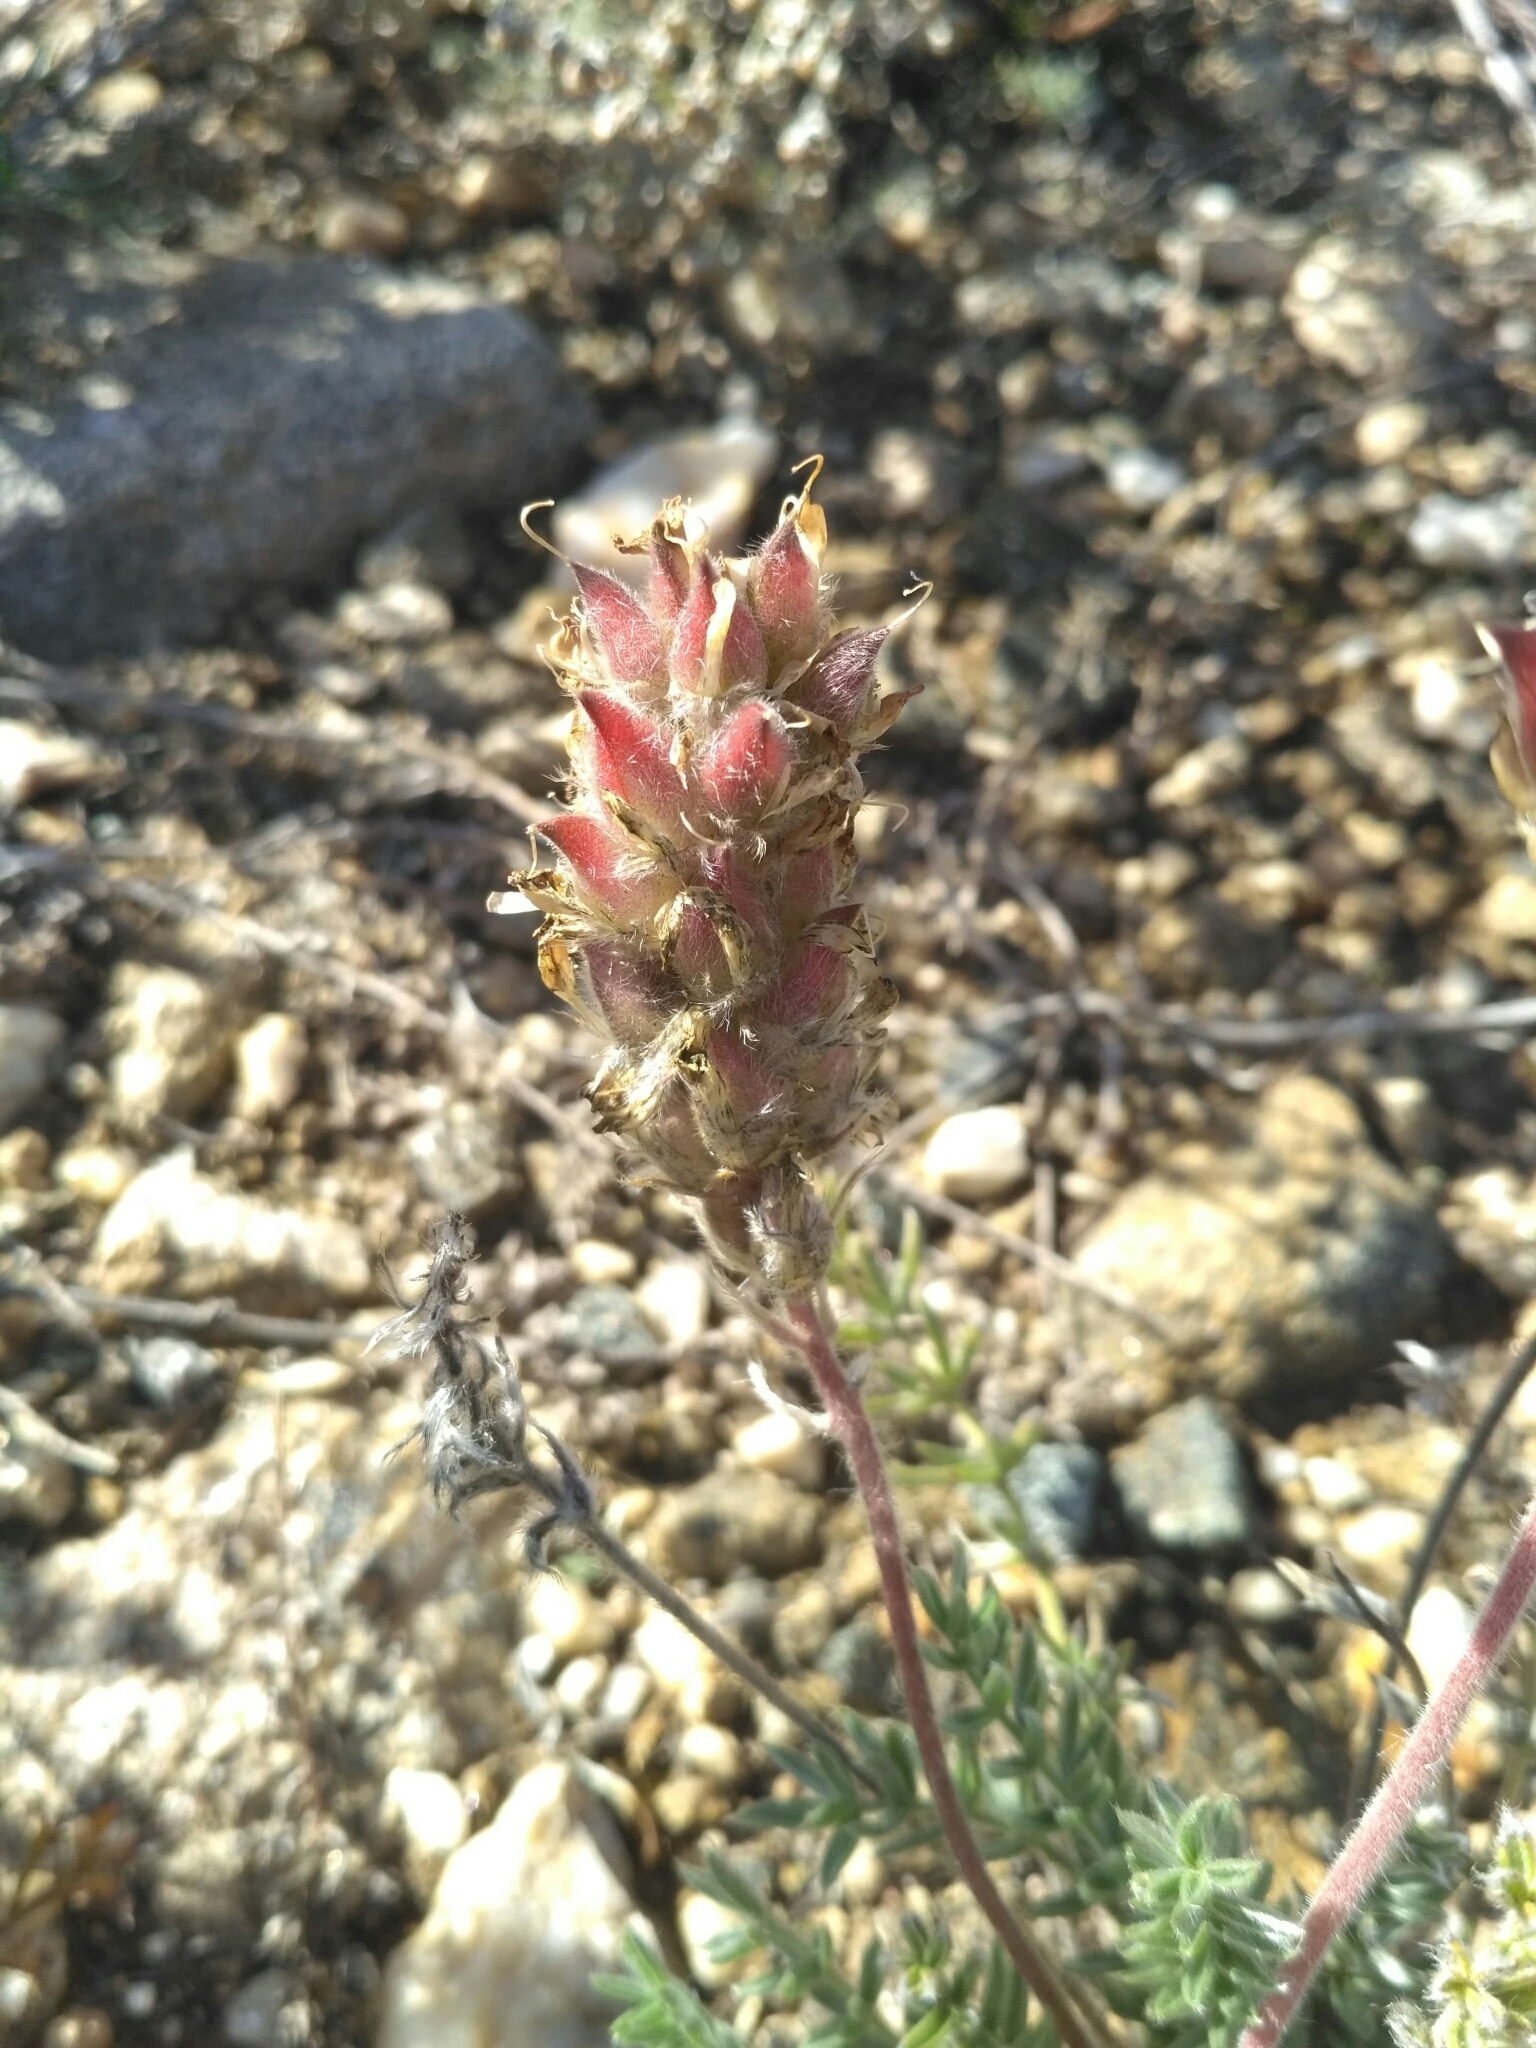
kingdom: Plantae
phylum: Tracheophyta
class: Magnoliopsida
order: Fabales
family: Fabaceae
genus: Oxytropis
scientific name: Oxytropis selengensis
